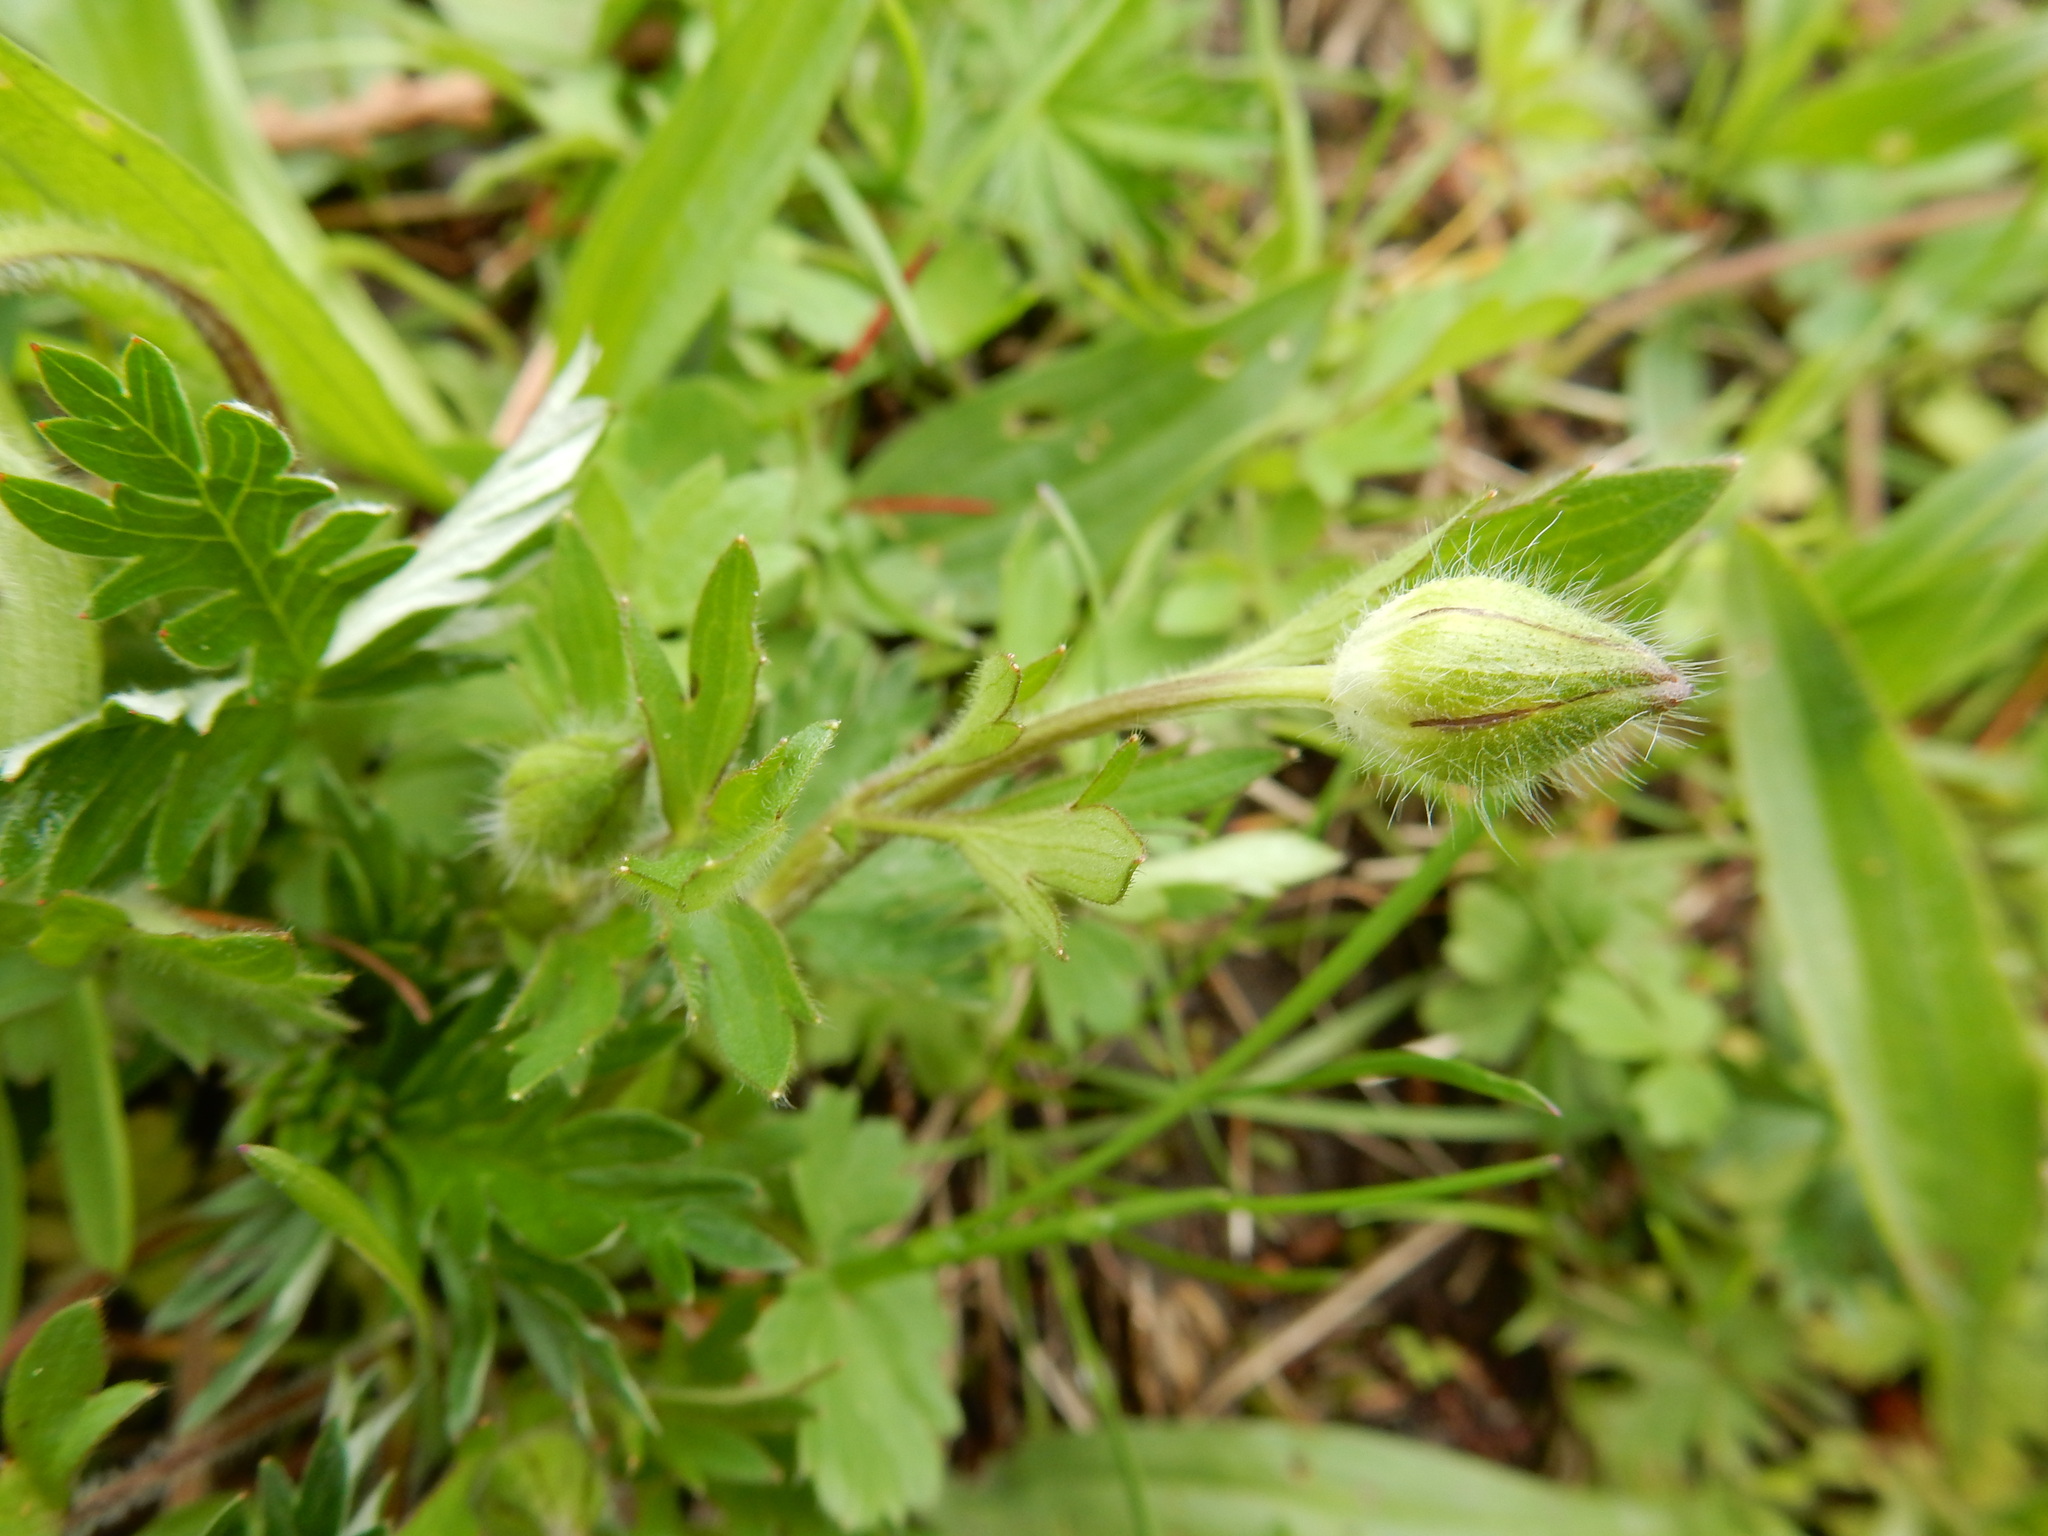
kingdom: Plantae
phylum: Tracheophyta
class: Magnoliopsida
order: Ranunculales
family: Ranunculaceae
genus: Ranunculus
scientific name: Ranunculus bulbosus
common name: Bulbous buttercup
